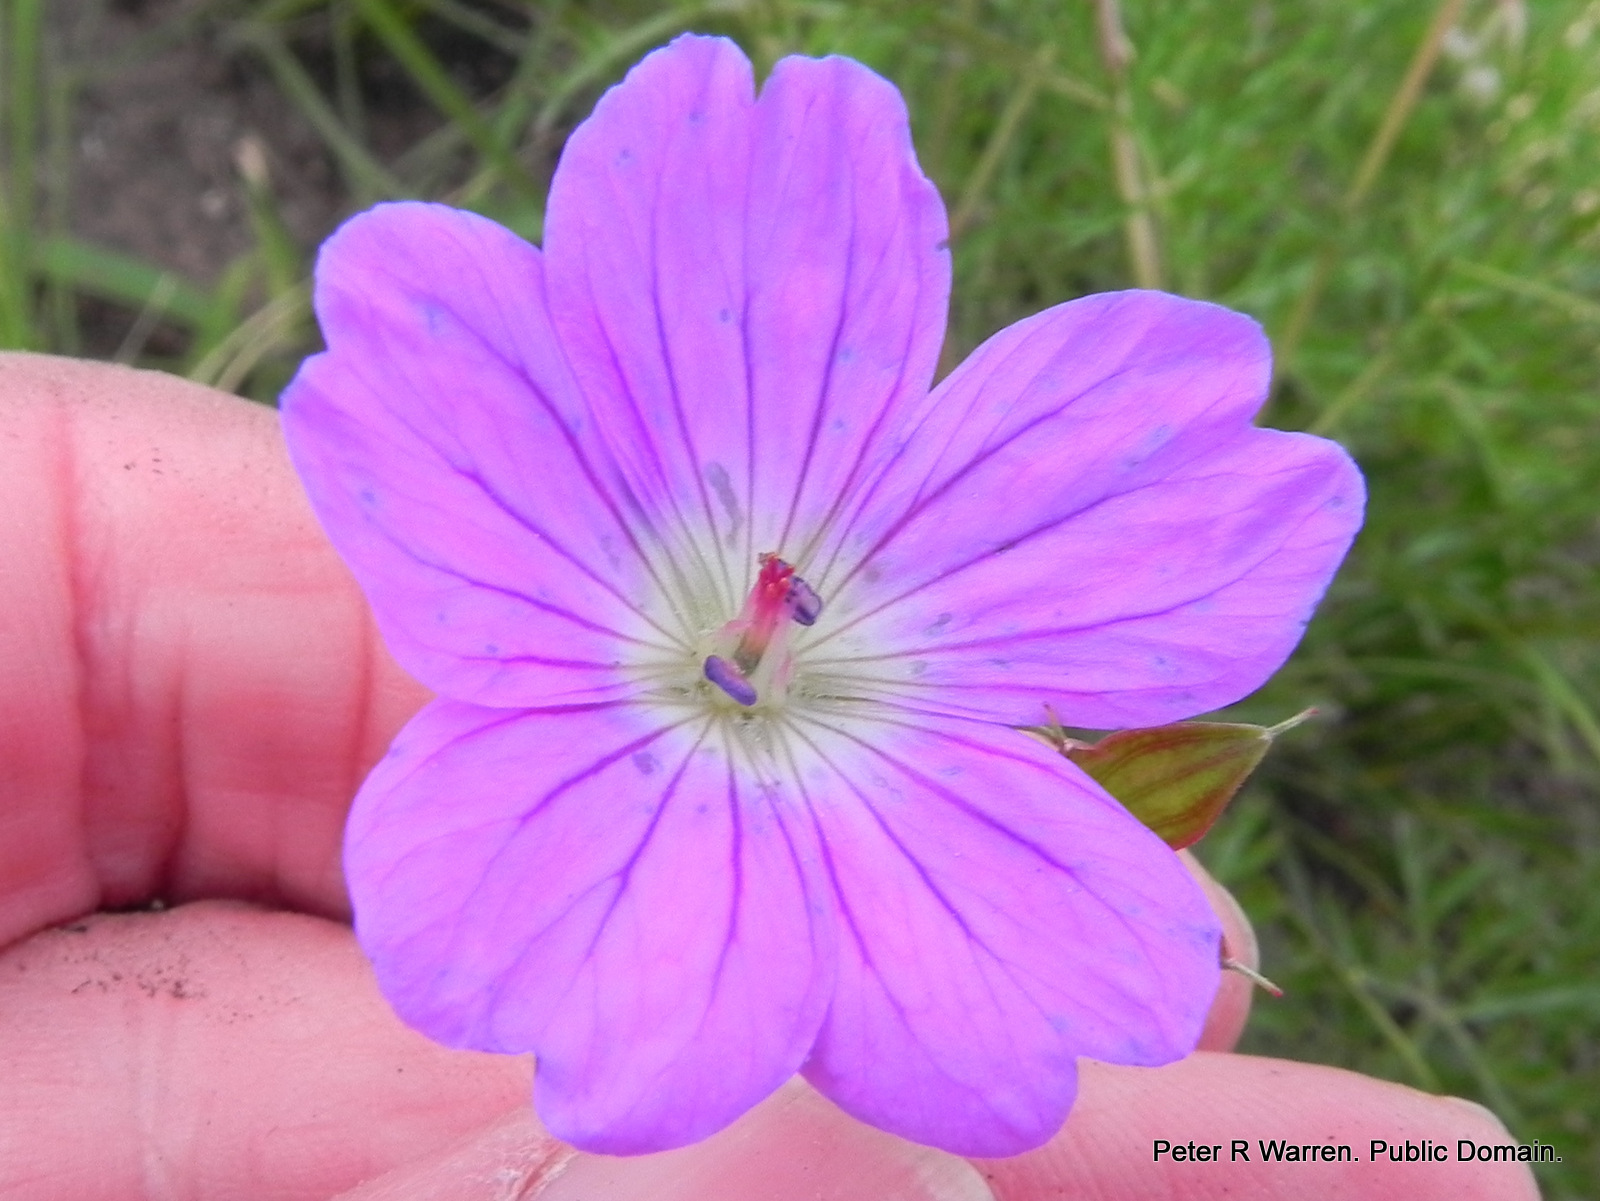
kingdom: Plantae
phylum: Tracheophyta
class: Magnoliopsida
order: Geraniales
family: Geraniaceae
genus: Geranium
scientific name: Geranium multisectum
